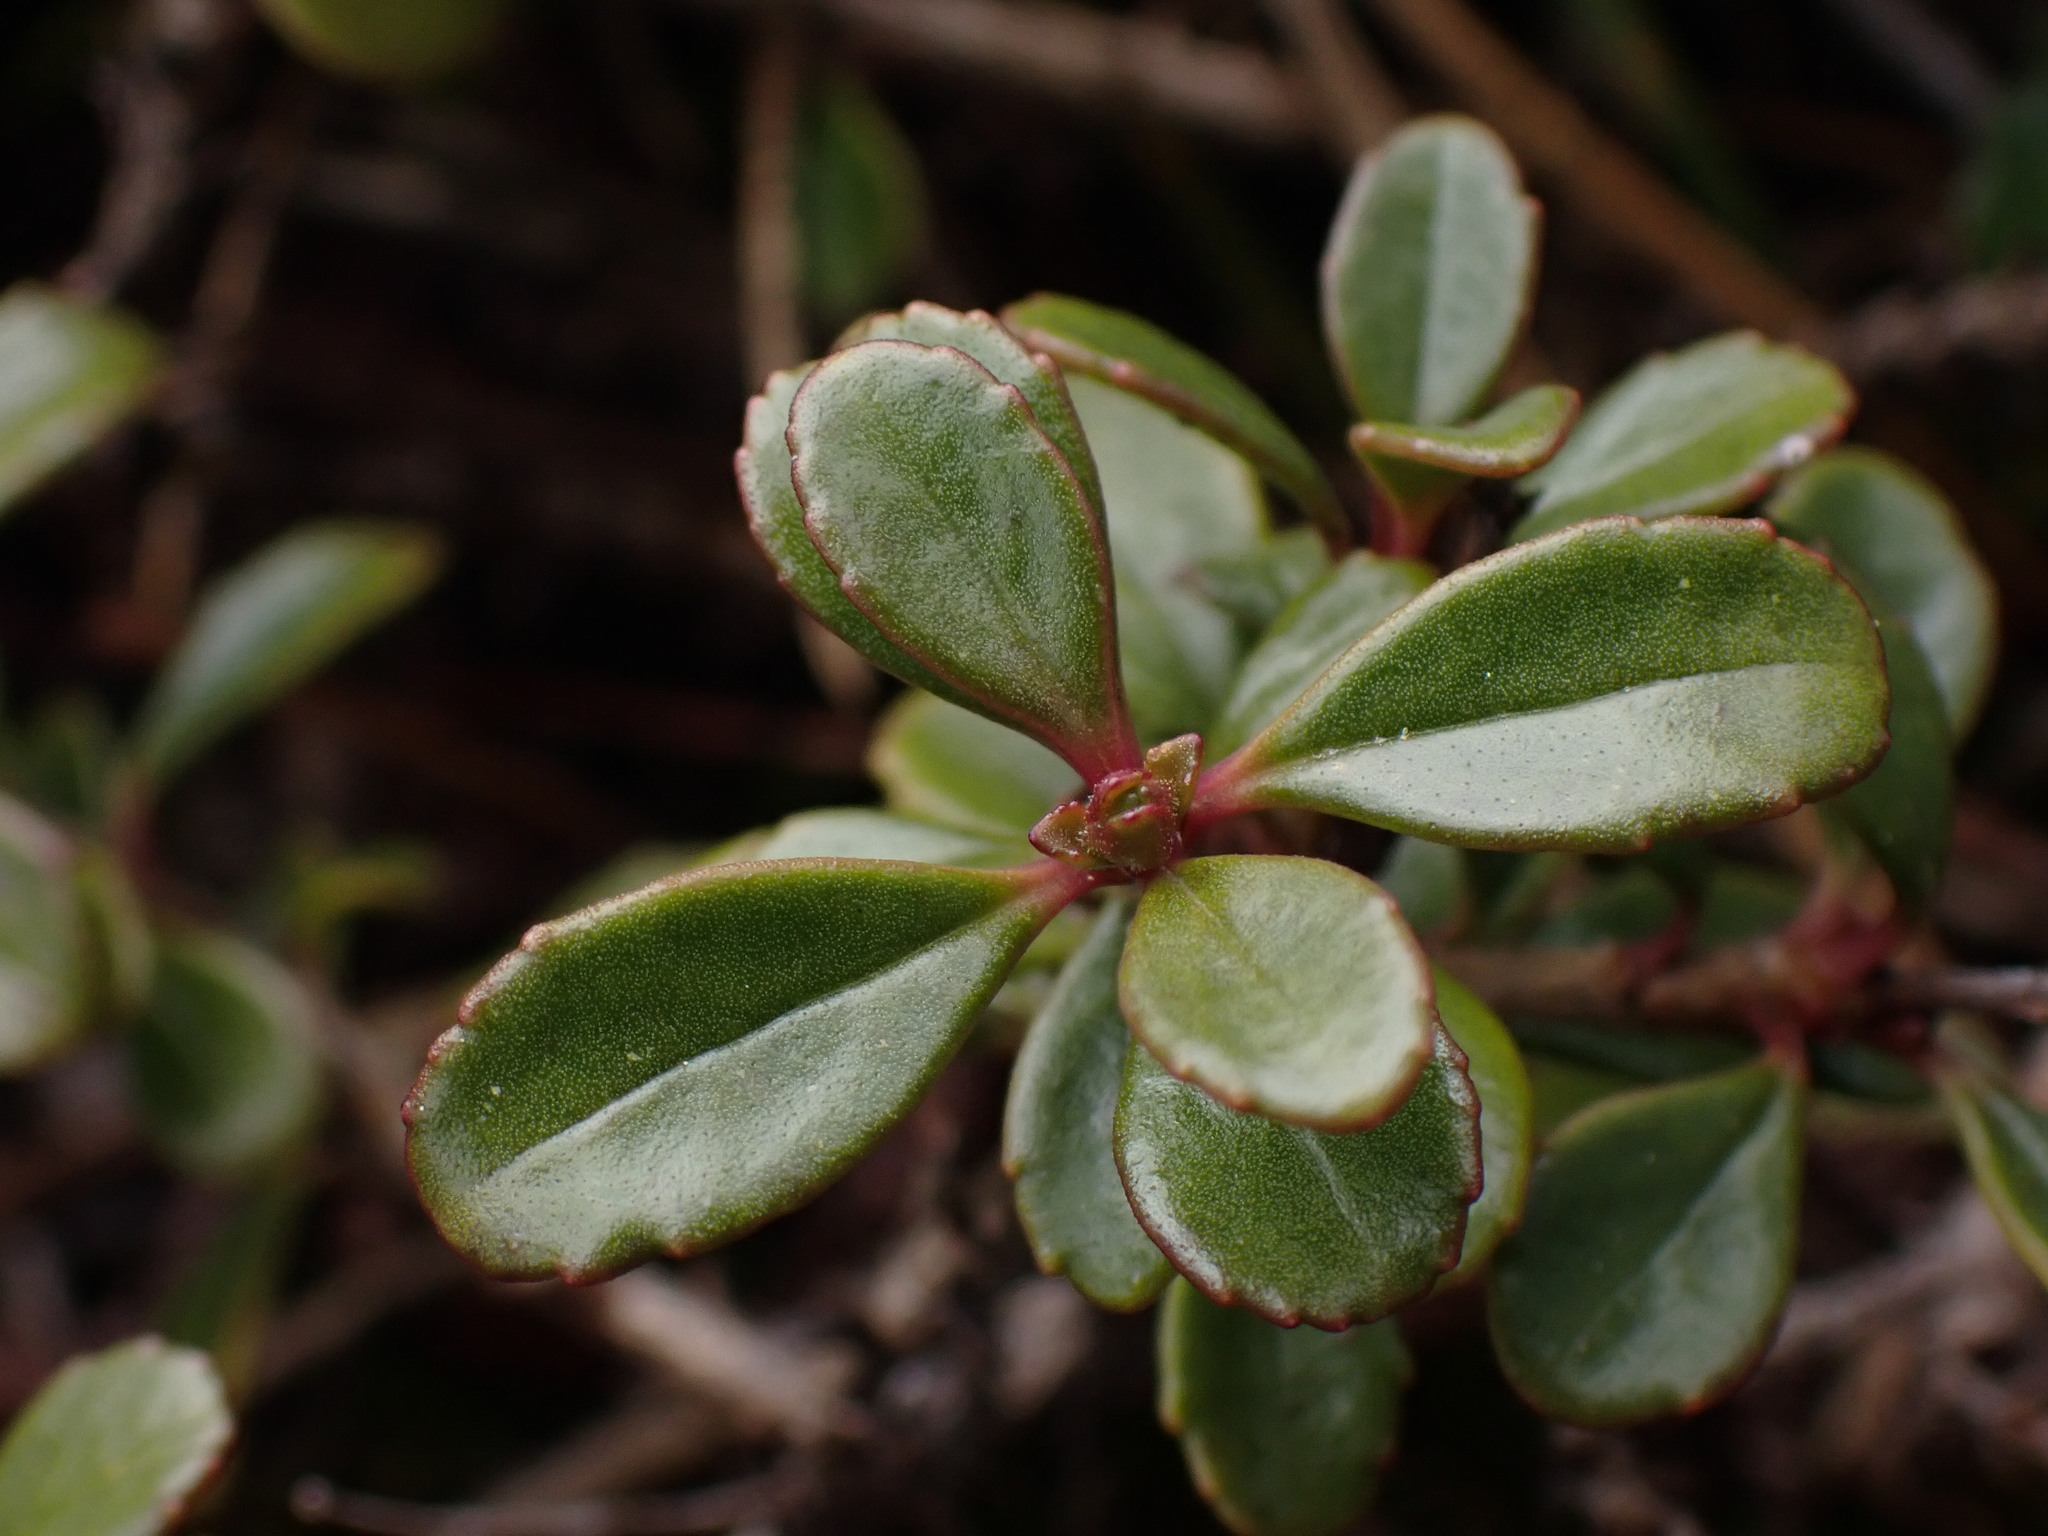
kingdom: Plantae
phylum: Tracheophyta
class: Magnoliopsida
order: Lamiales
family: Plantaginaceae
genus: Penstemon
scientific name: Penstemon davidsonii
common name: Davidson's penstemon
